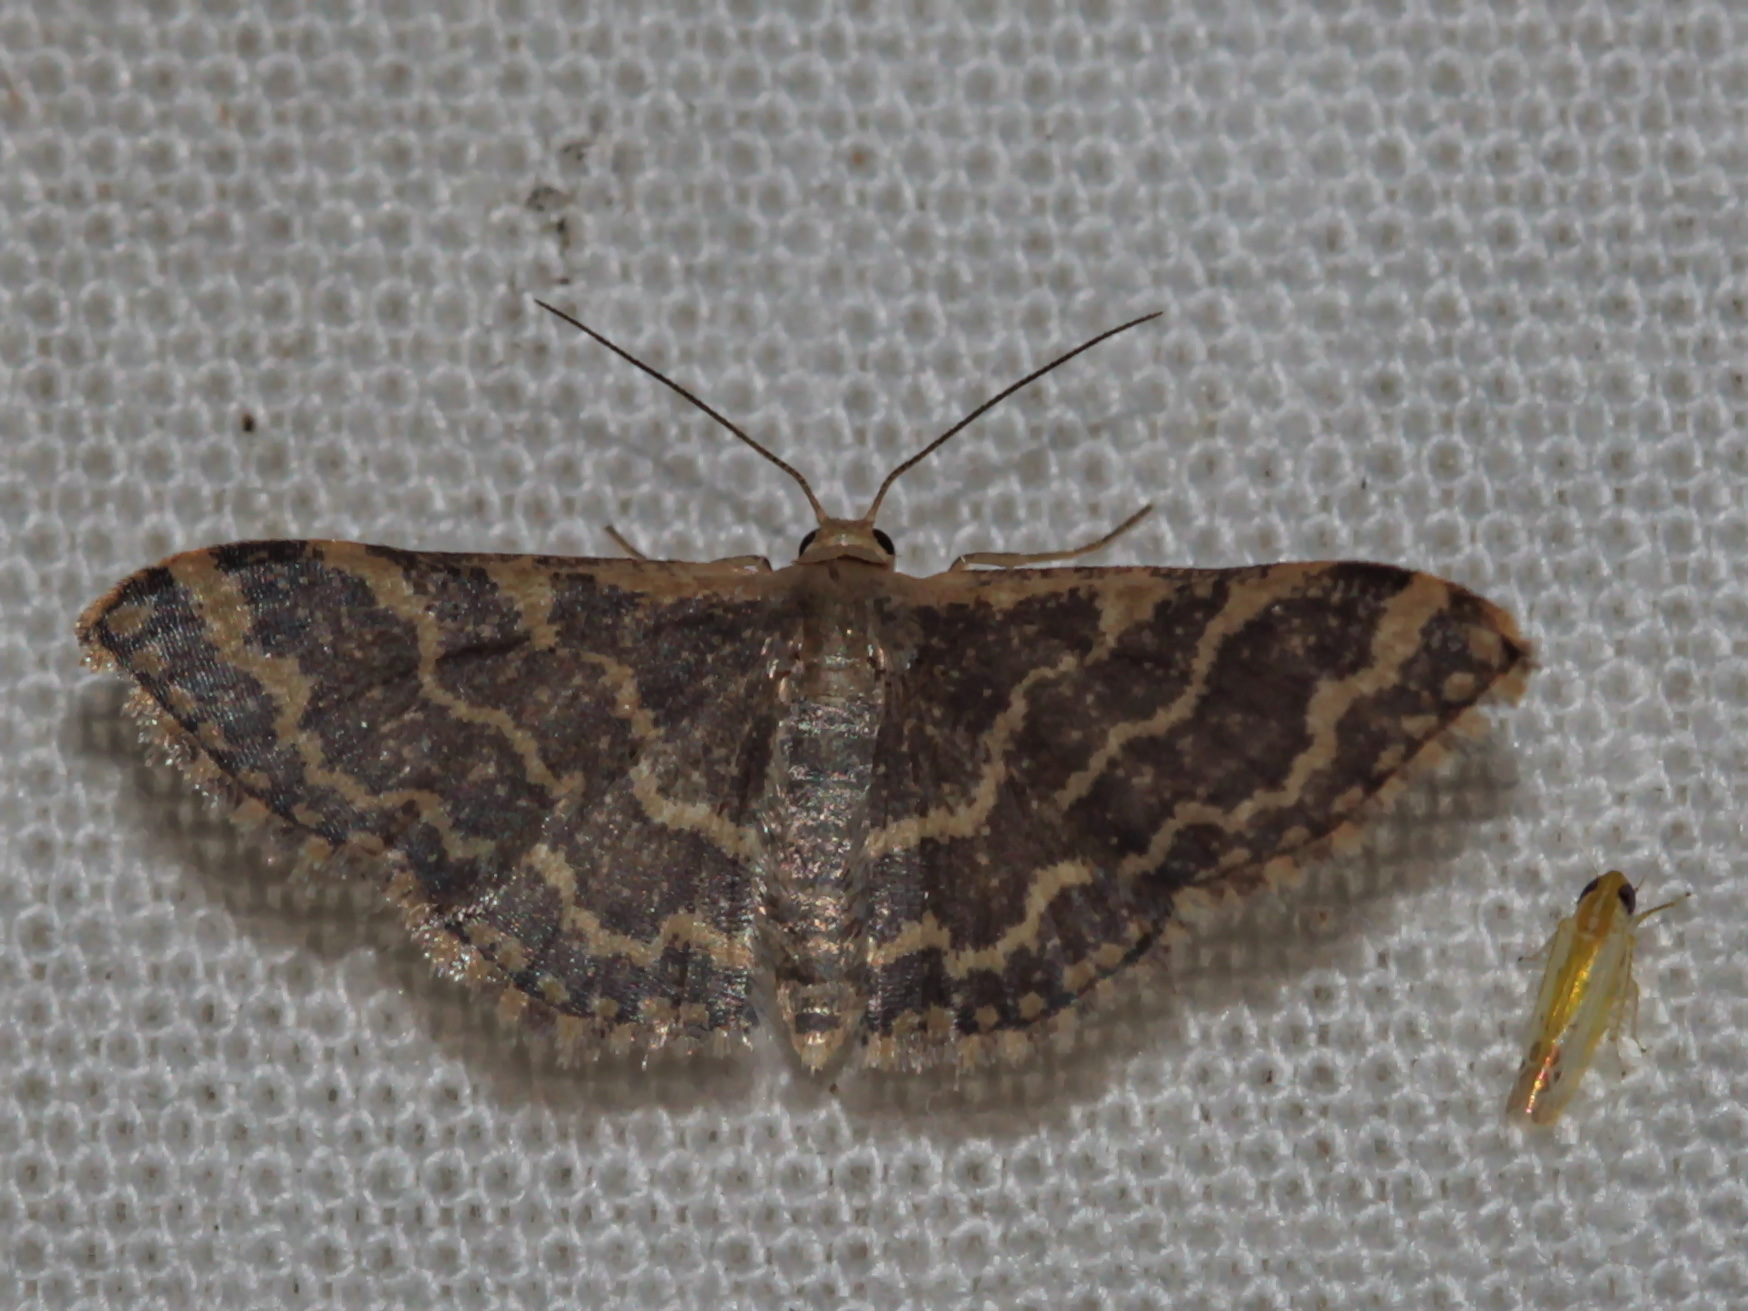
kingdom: Animalia
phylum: Arthropoda
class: Insecta
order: Lepidoptera
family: Geometridae
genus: Idaea
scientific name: Idaea costiguttata
